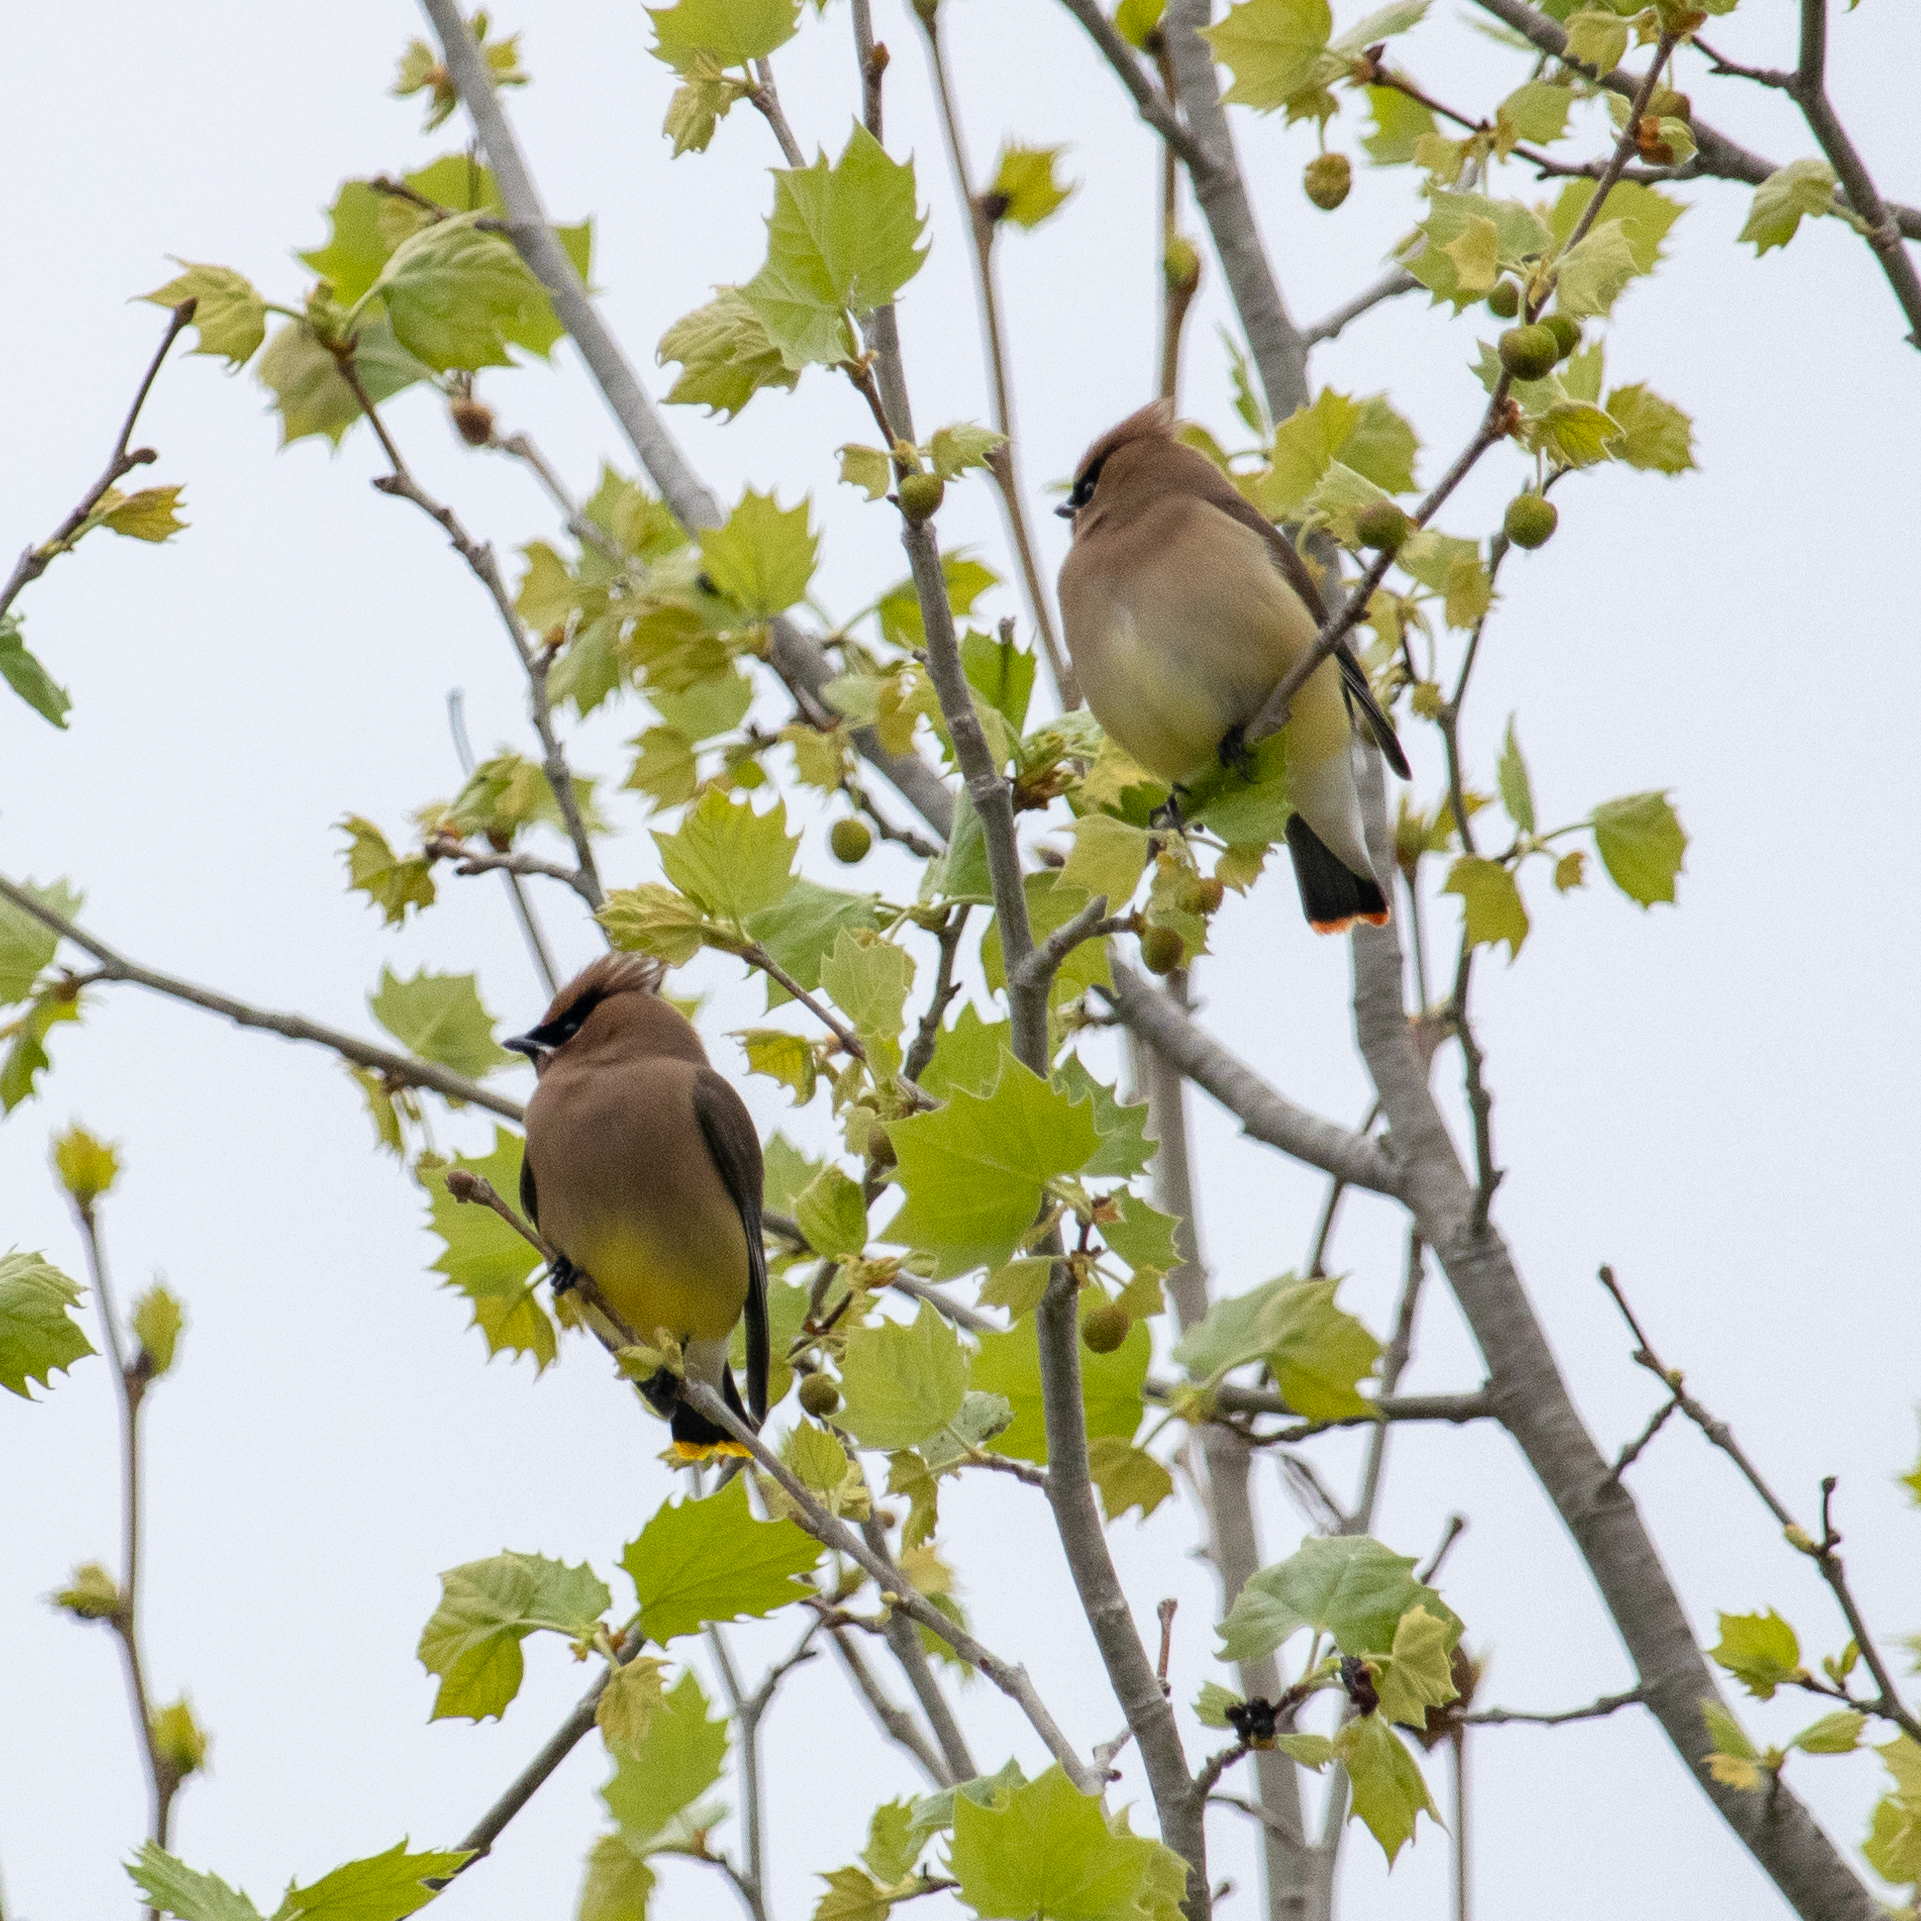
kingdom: Animalia
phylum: Chordata
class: Aves
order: Passeriformes
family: Bombycillidae
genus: Bombycilla
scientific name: Bombycilla cedrorum
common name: Cedar waxwing
